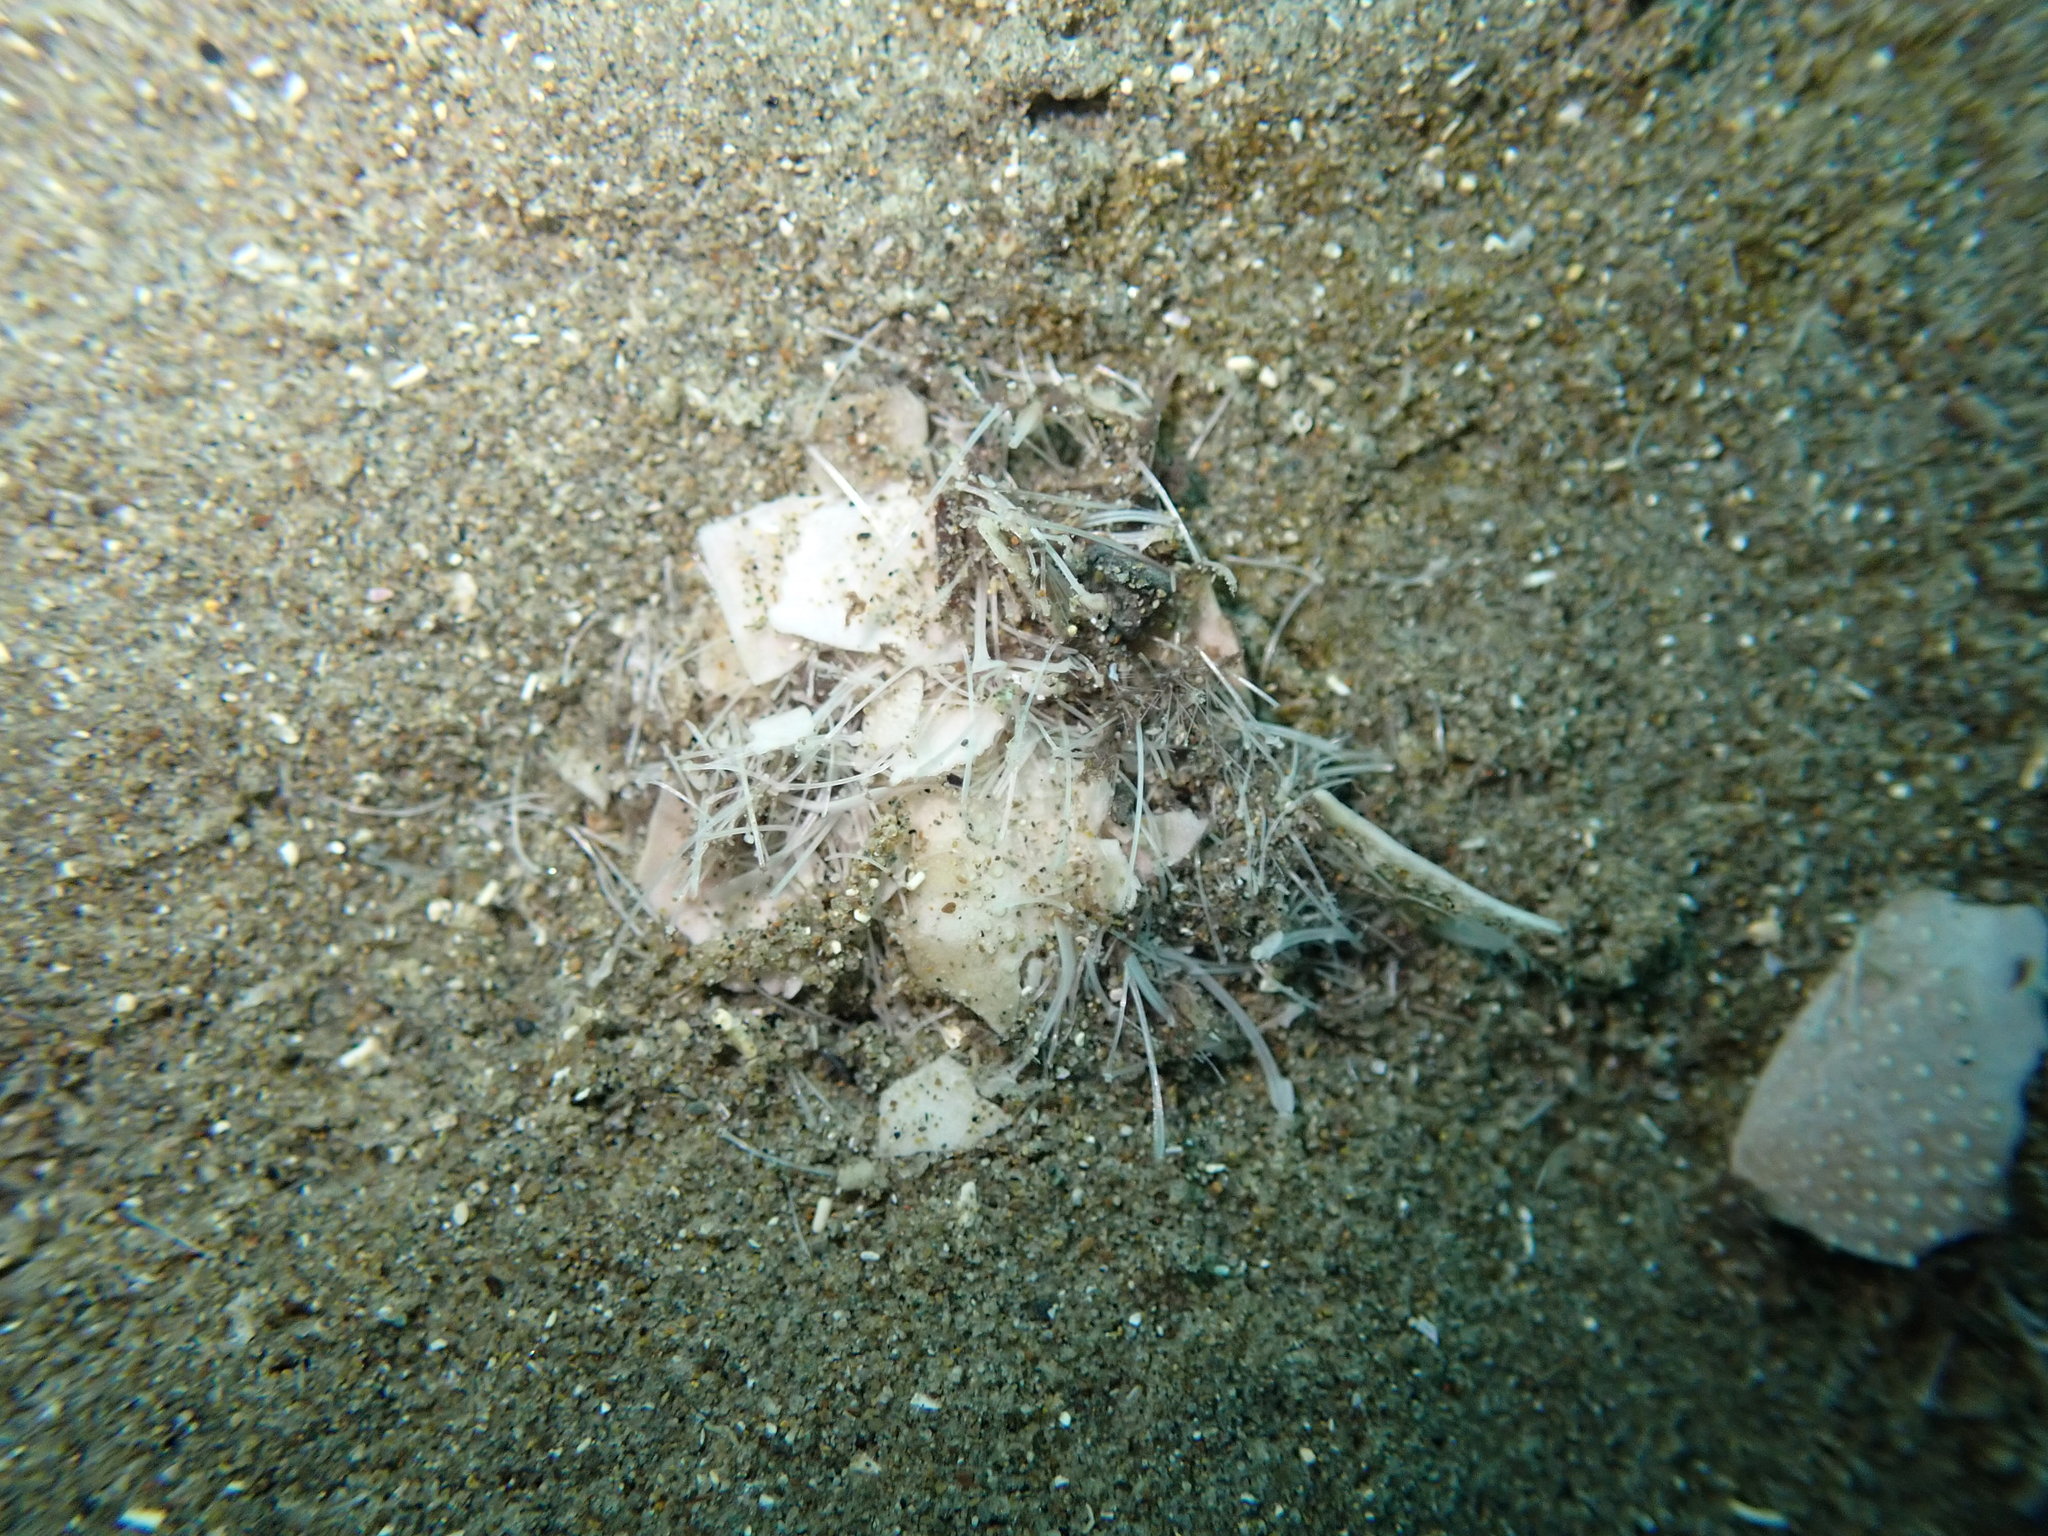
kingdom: Animalia
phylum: Echinodermata
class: Echinoidea
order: Spatangoida
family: Loveniidae
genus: Echinocardium
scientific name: Echinocardium cordatum
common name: Heart-urchin
